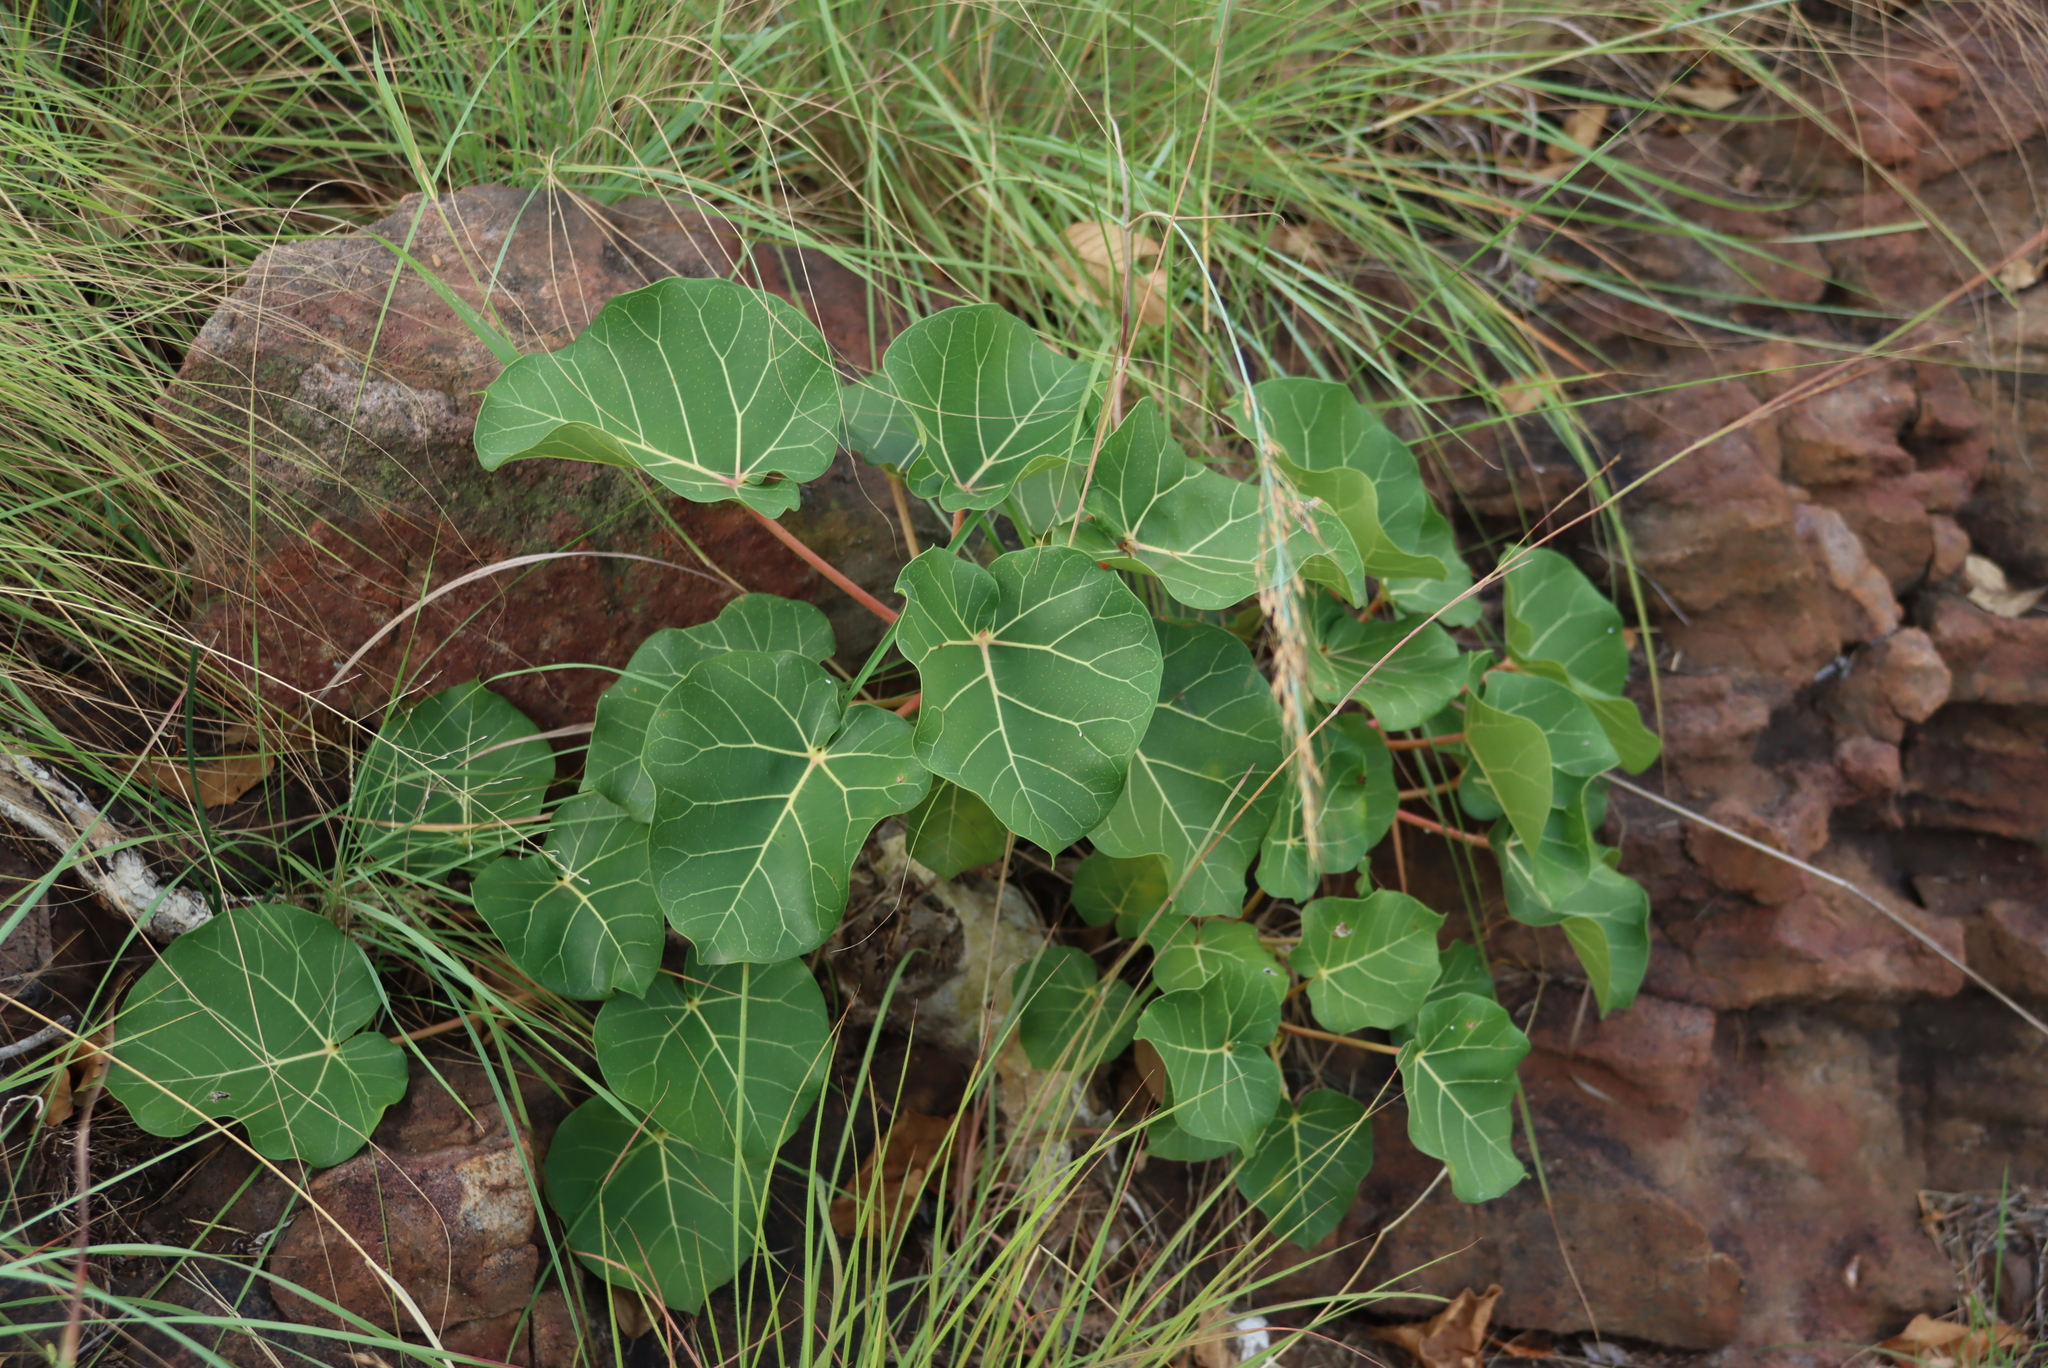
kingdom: Plantae
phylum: Tracheophyta
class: Magnoliopsida
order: Rosales
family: Moraceae
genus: Ficus
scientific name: Ficus abutilifolia
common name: Large-leaved rock fig
